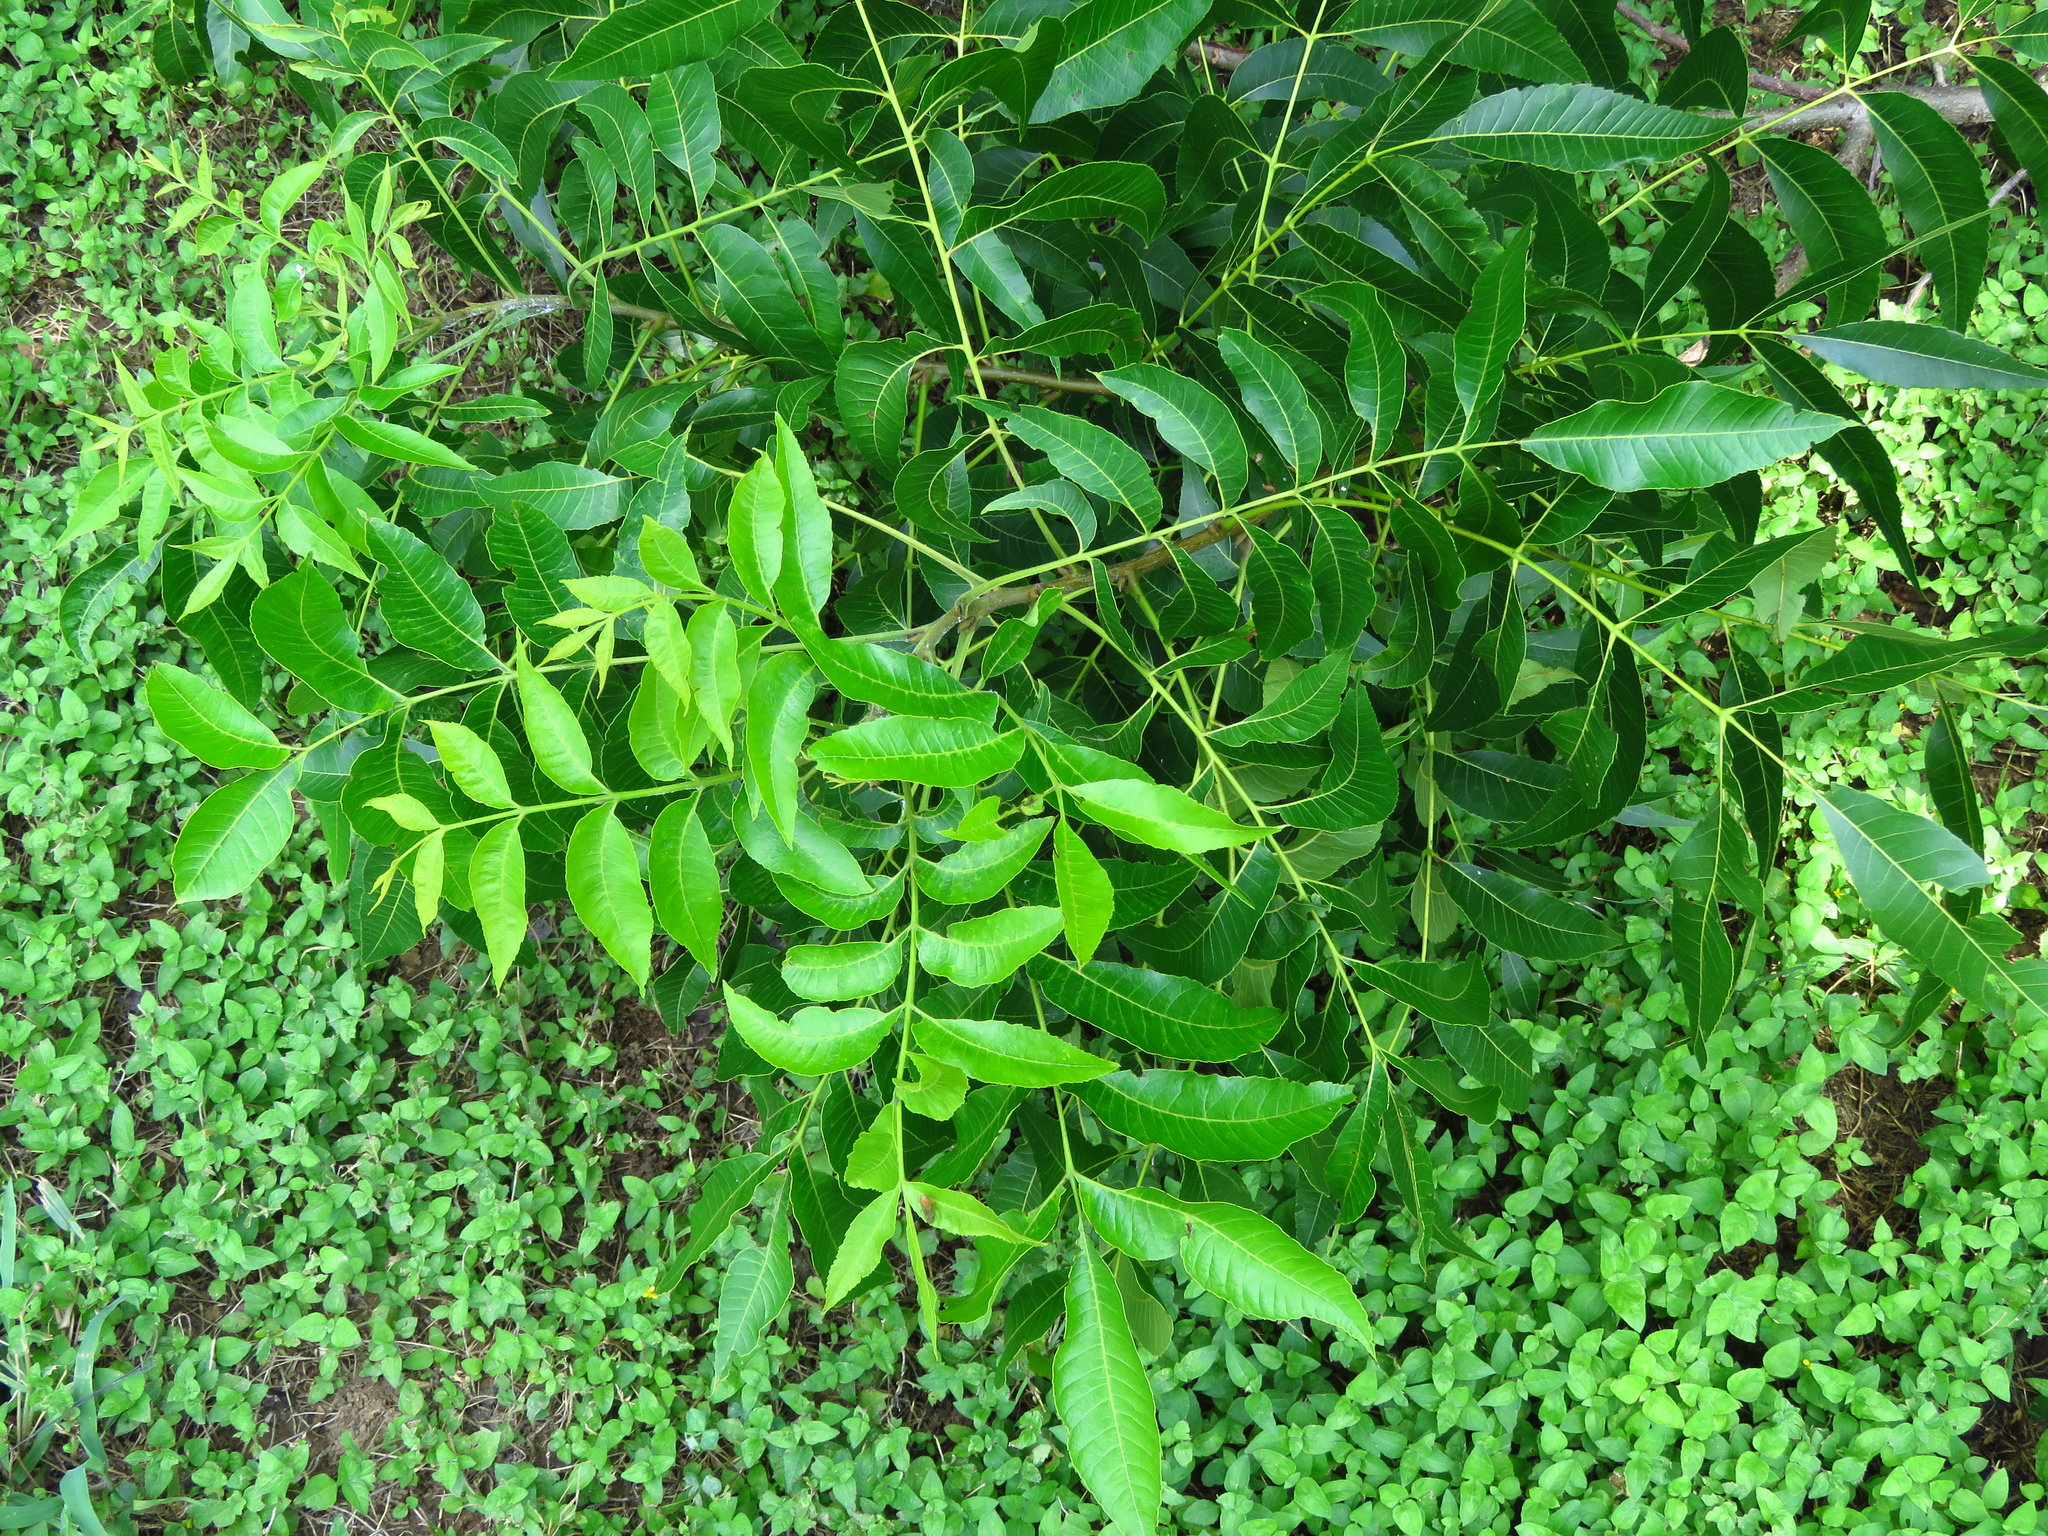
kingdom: Plantae
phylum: Tracheophyta
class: Magnoliopsida
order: Fagales
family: Juglandaceae
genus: Carya
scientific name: Carya illinoinensis
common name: Pecan
